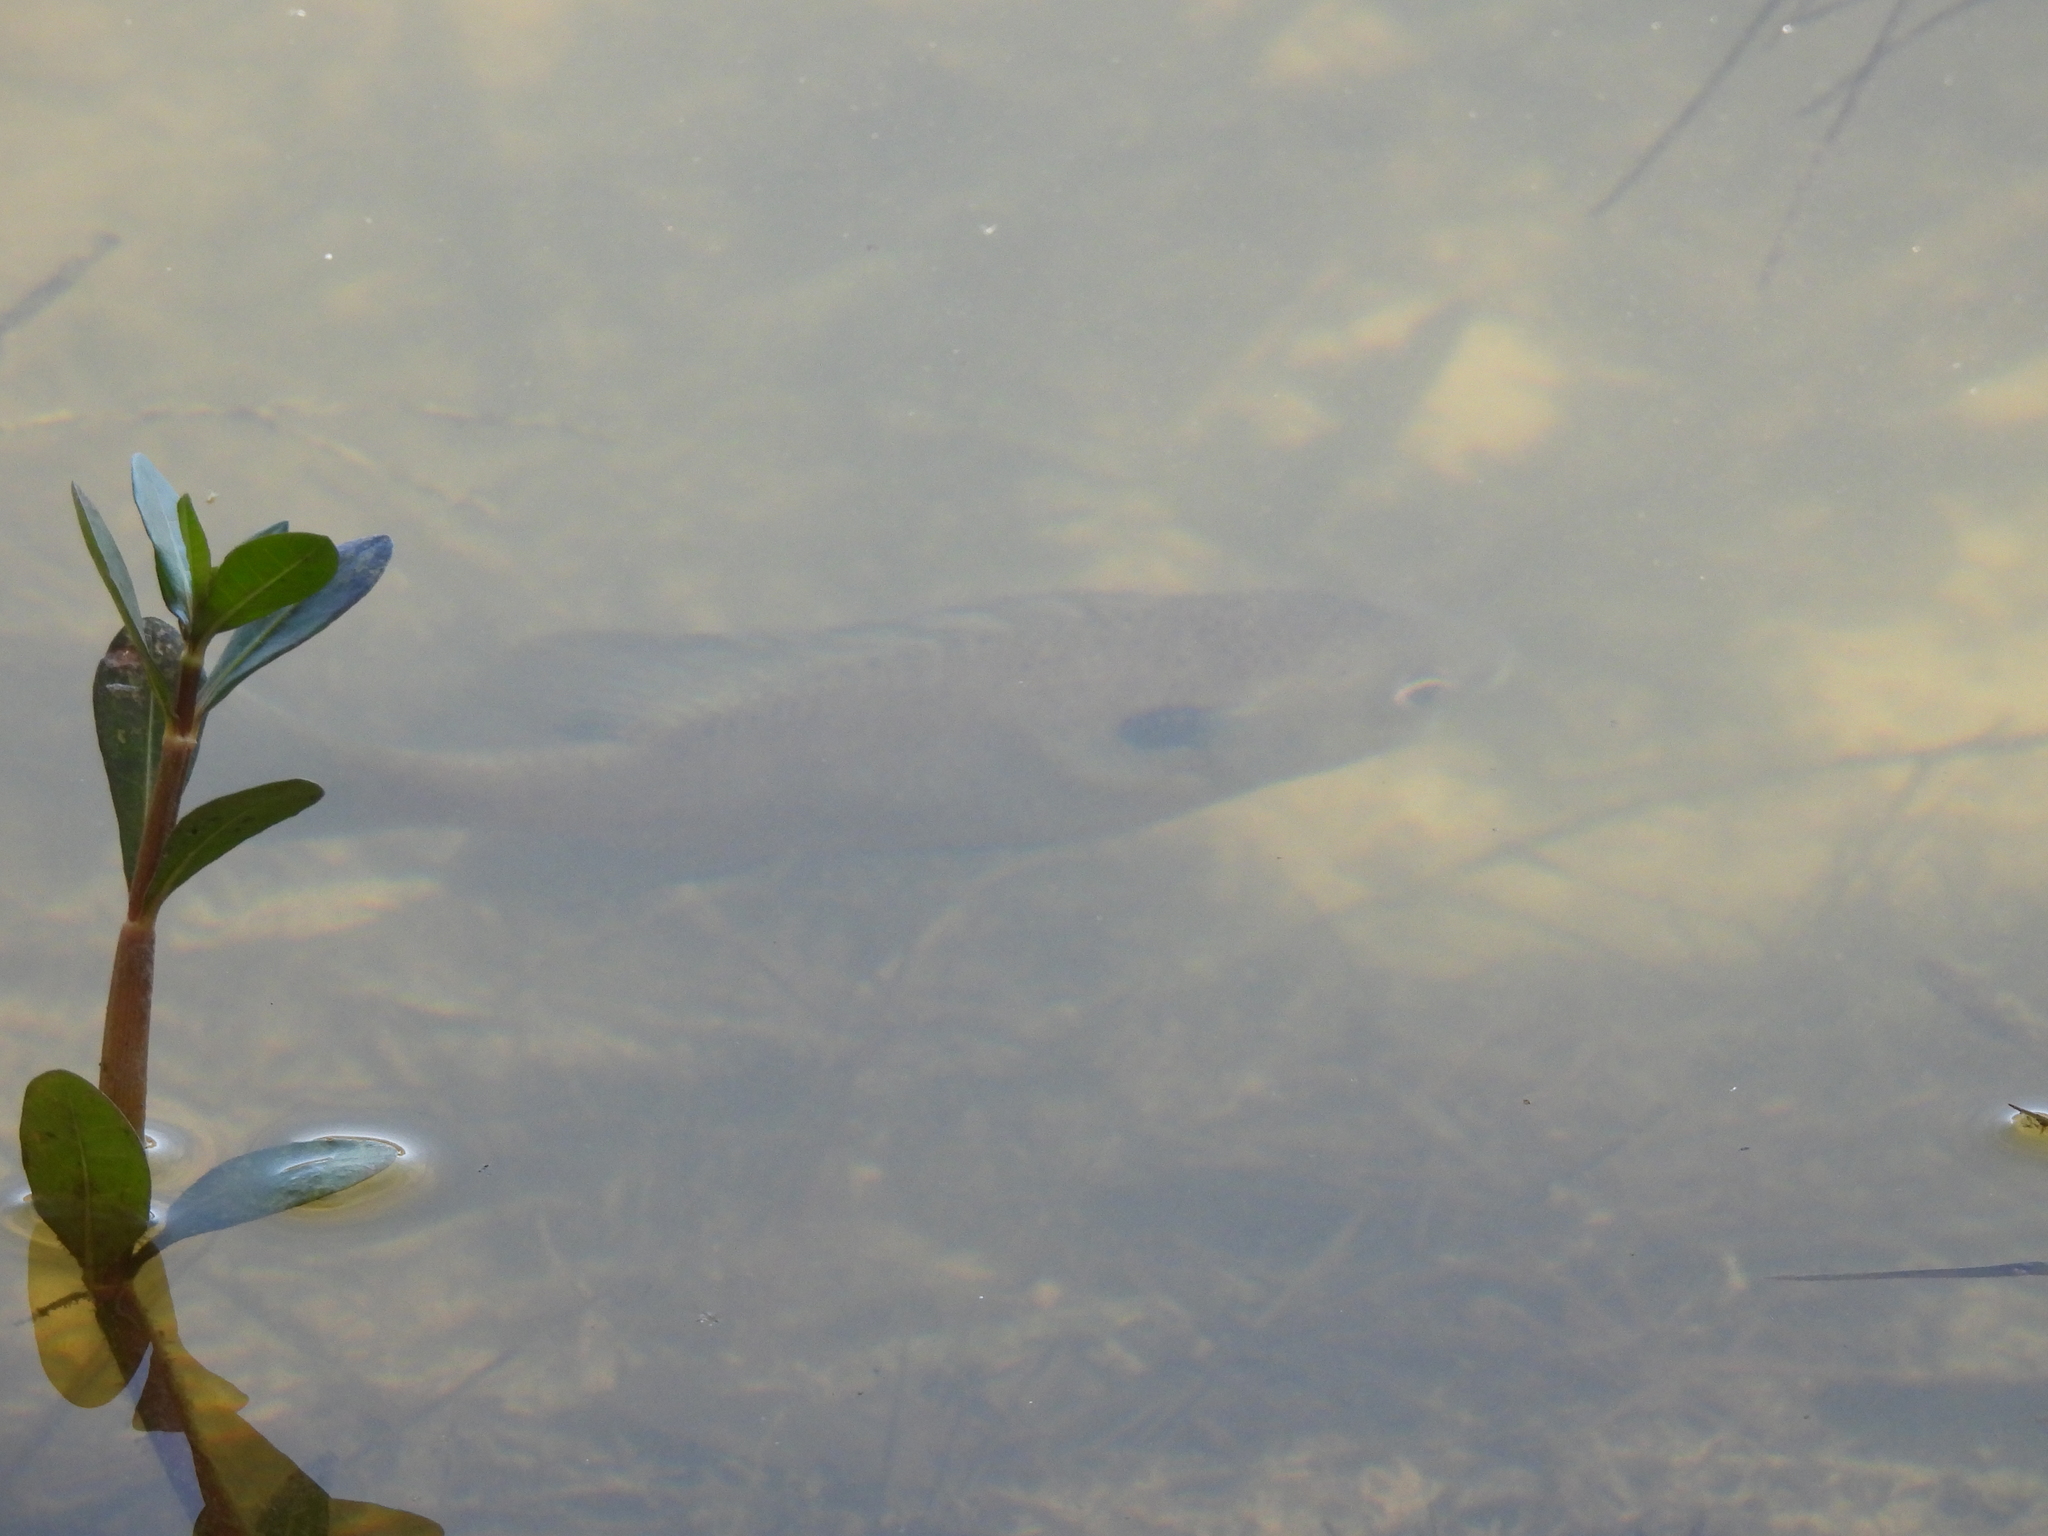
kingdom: Animalia
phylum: Chordata
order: Perciformes
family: Centrarchidae
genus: Lepomis
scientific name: Lepomis macrochirus
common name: Bluegill
